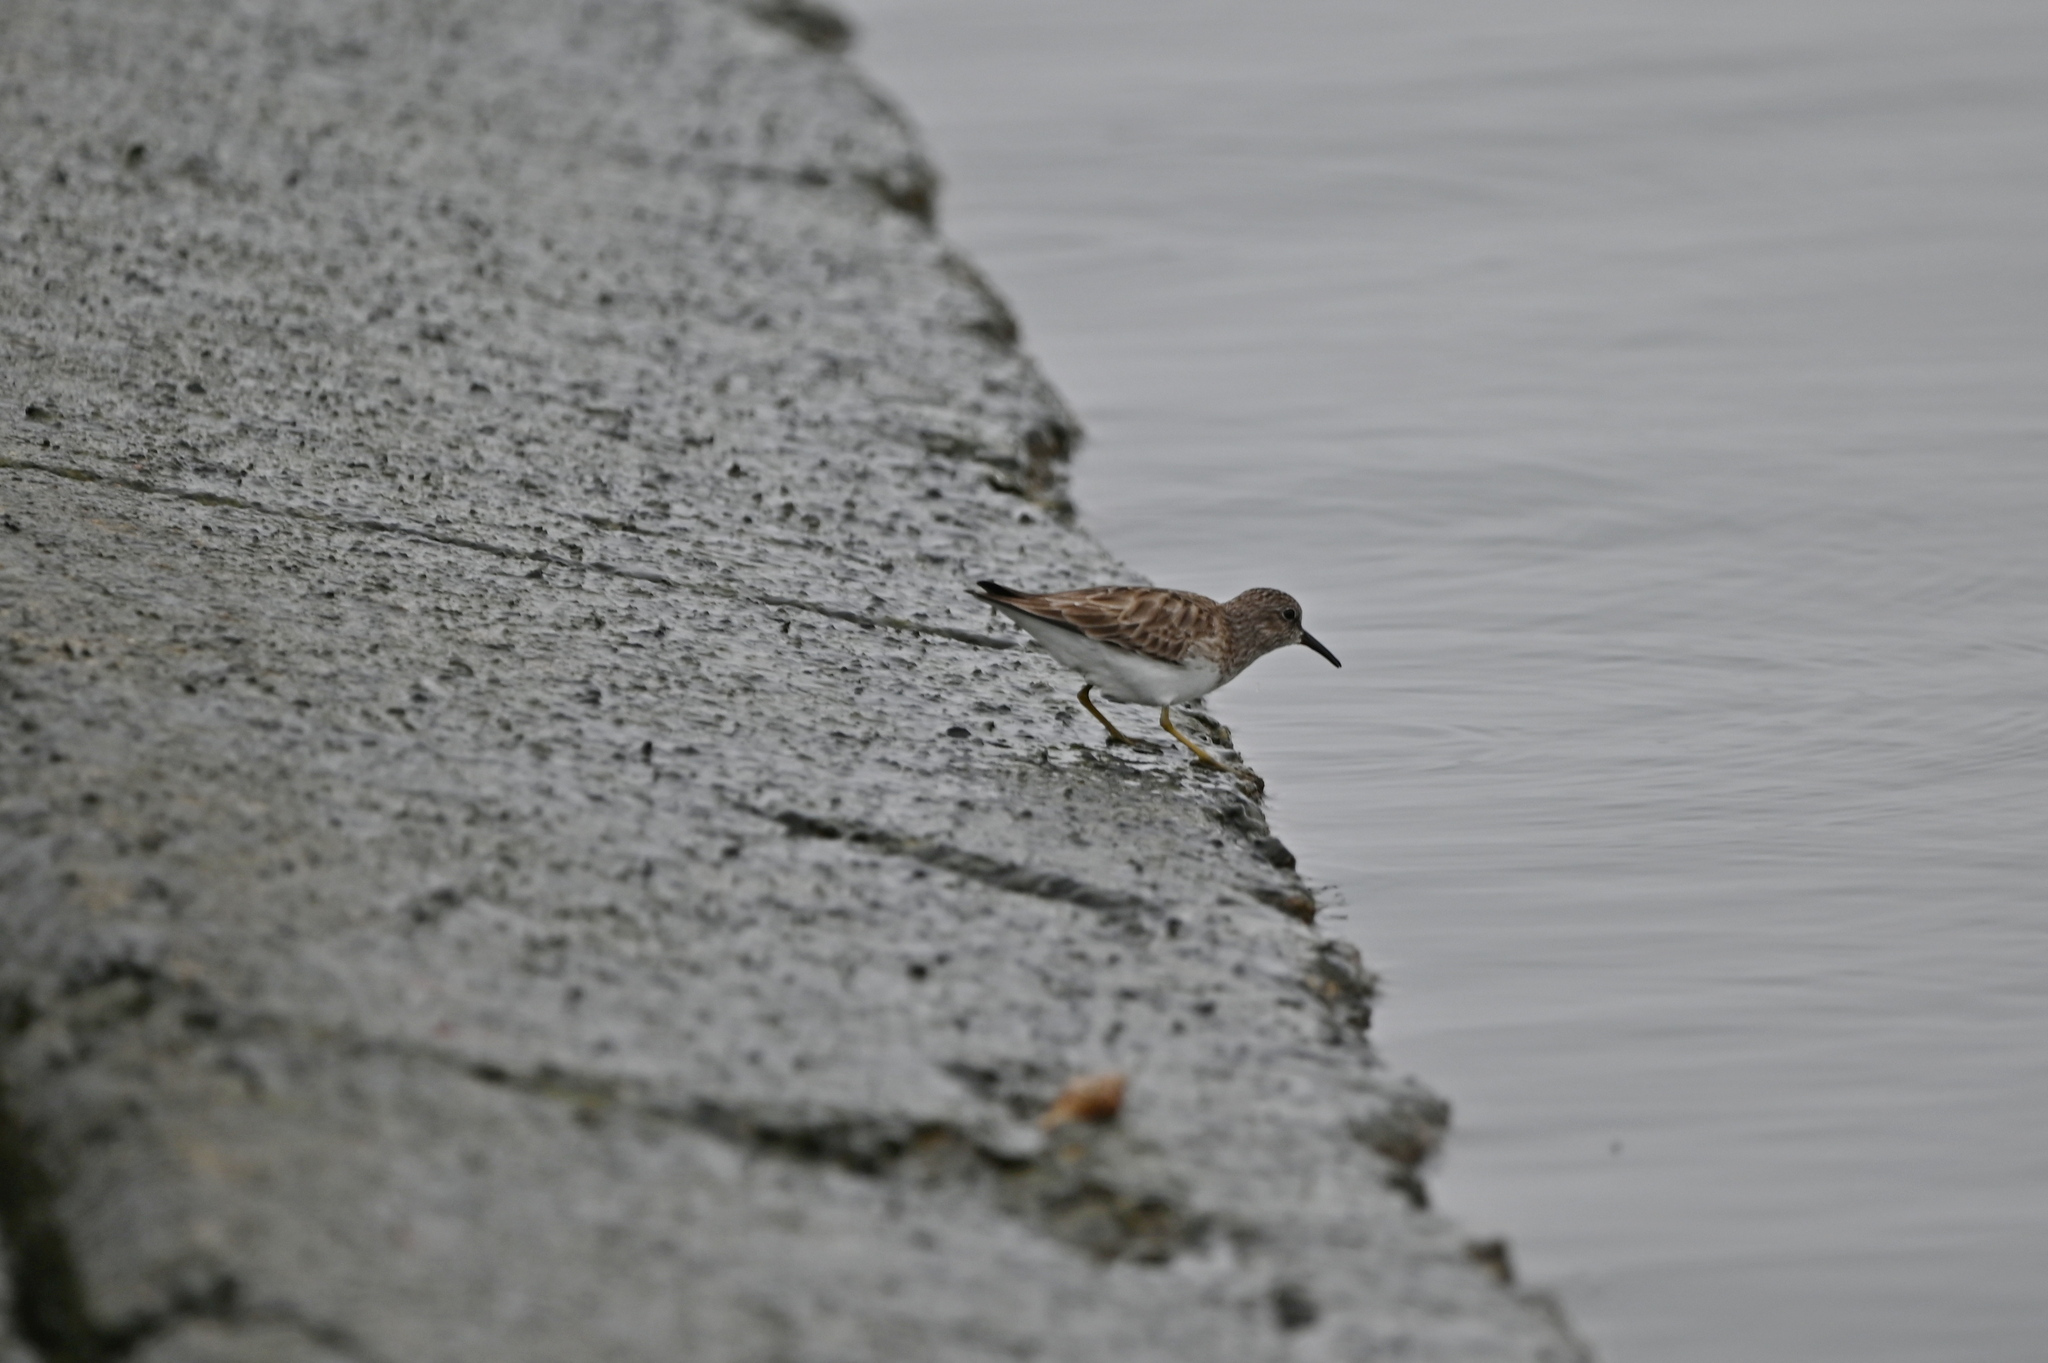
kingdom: Animalia
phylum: Chordata
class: Aves
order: Charadriiformes
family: Scolopacidae
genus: Calidris
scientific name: Calidris minutilla
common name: Least sandpiper
